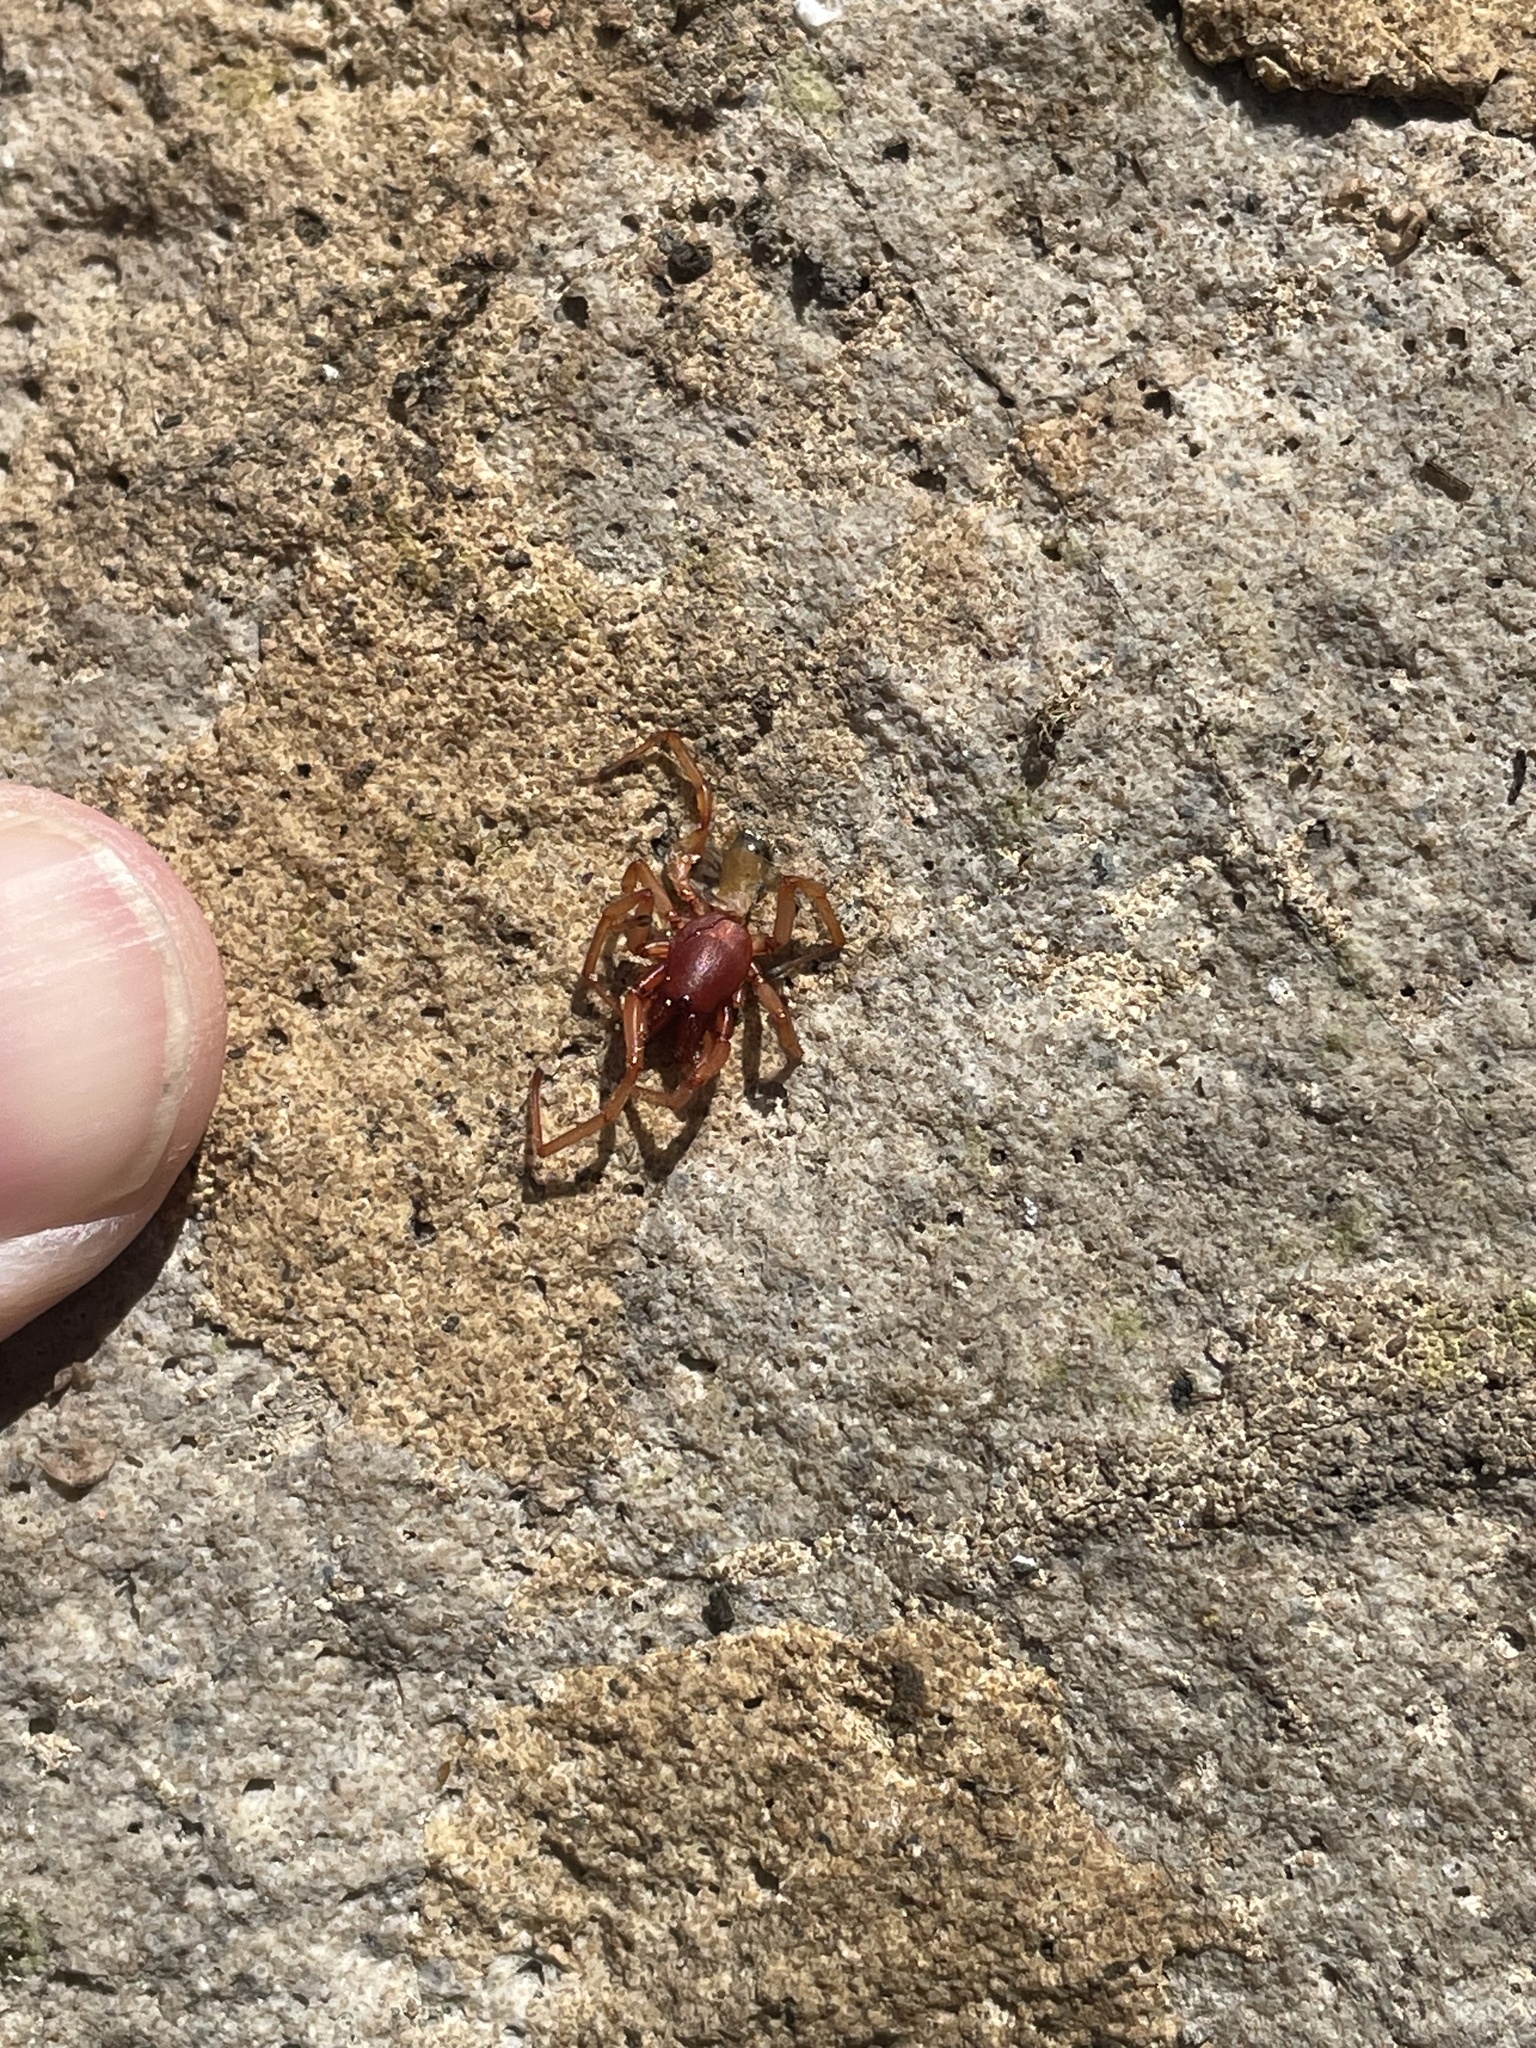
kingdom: Animalia
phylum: Arthropoda
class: Arachnida
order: Araneae
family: Dysderidae
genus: Dysdera
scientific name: Dysdera crocata
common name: Woodlouse spider
